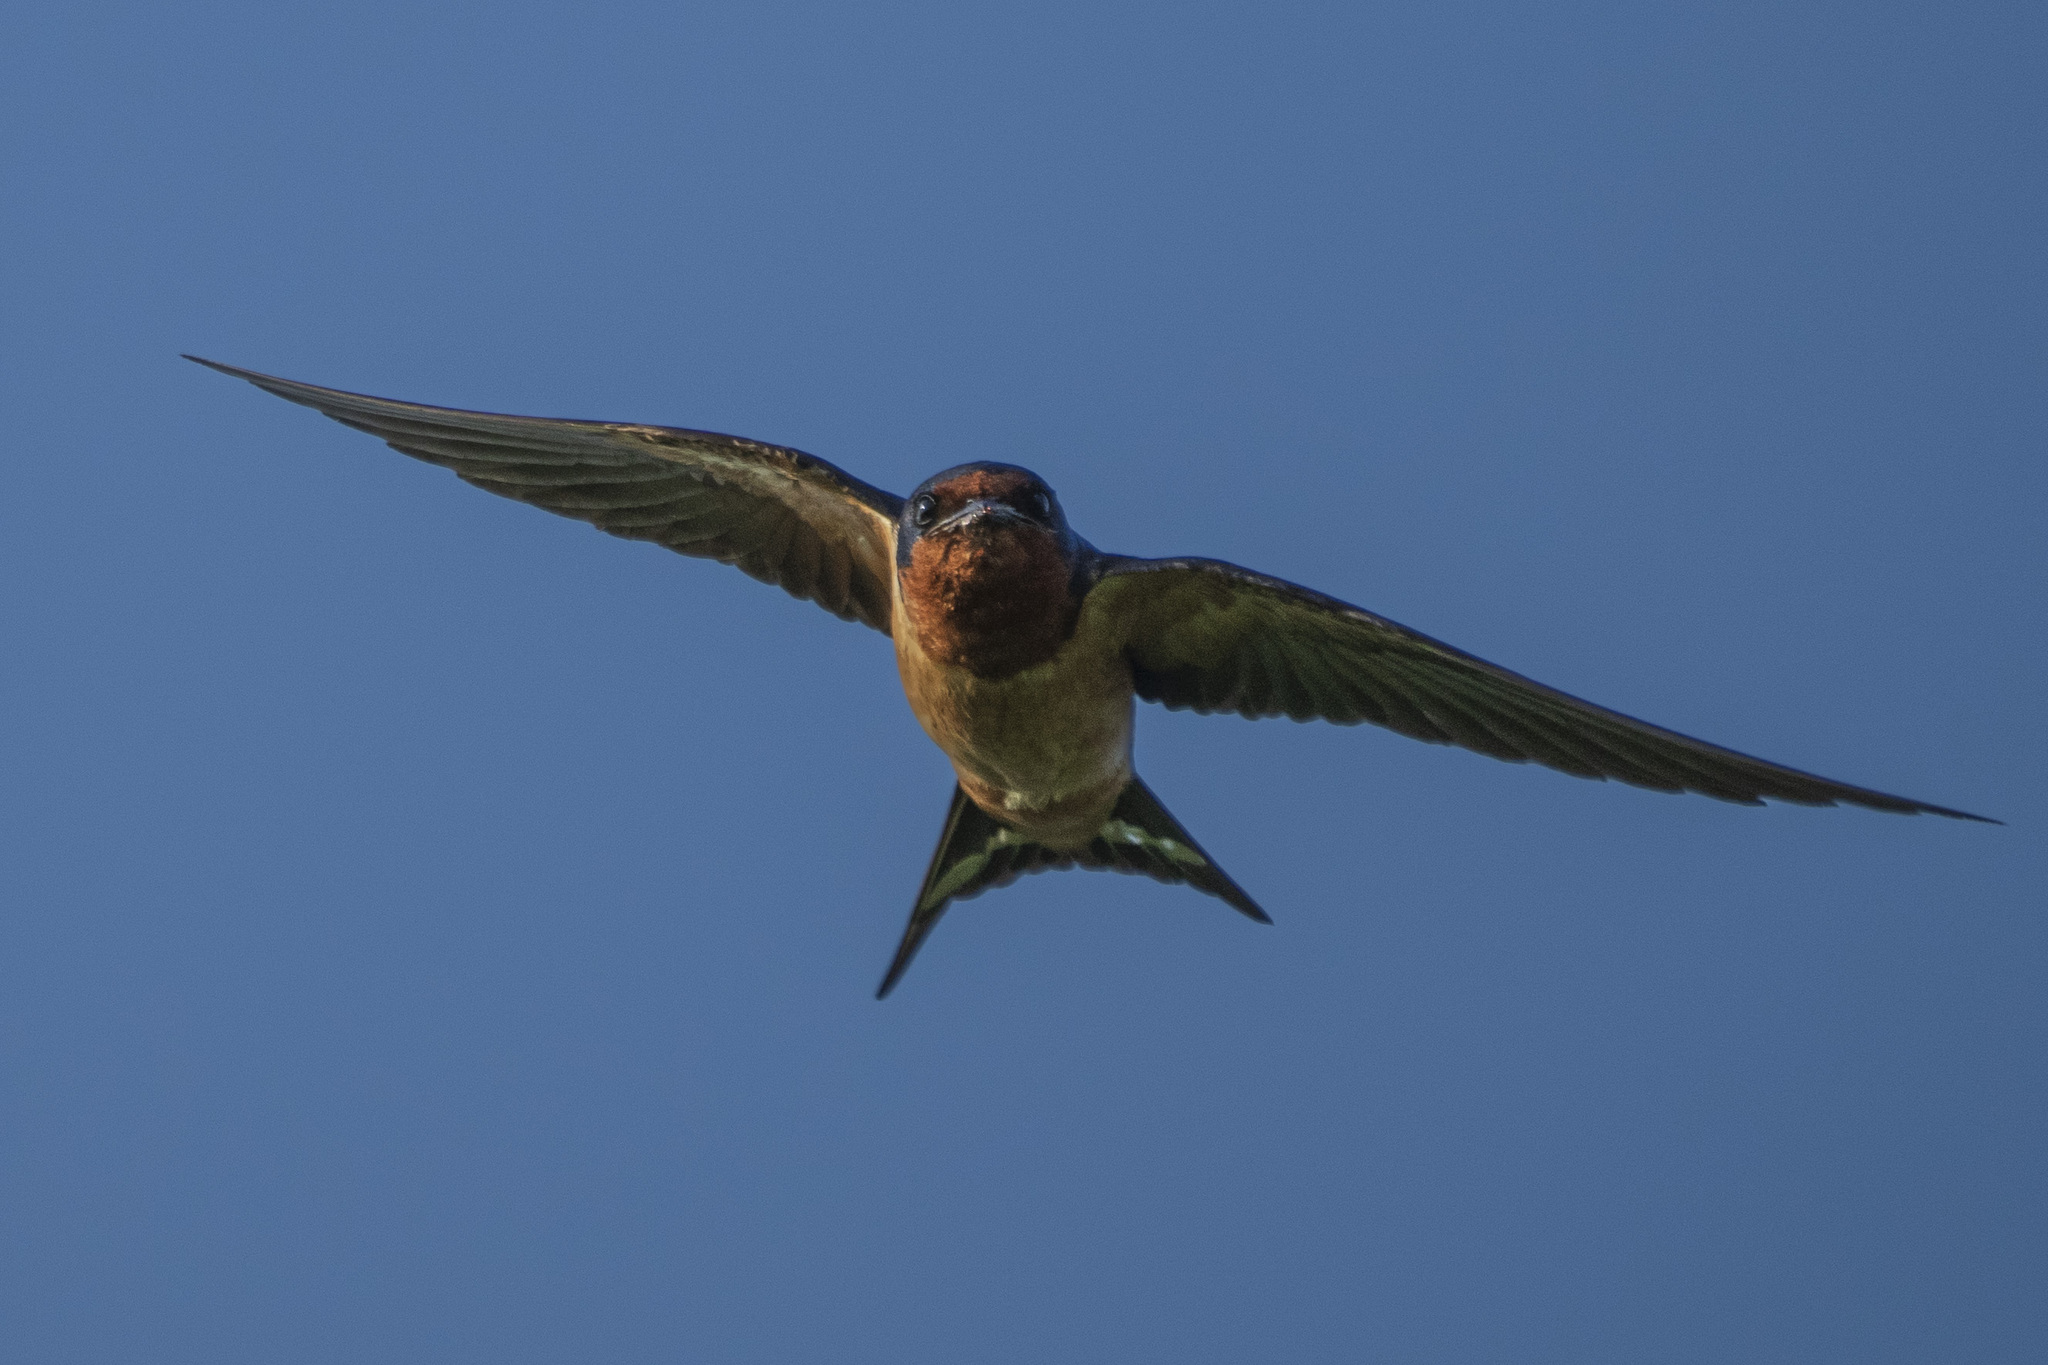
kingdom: Animalia
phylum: Chordata
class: Aves
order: Passeriformes
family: Hirundinidae
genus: Hirundo
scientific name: Hirundo rustica
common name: Barn swallow
